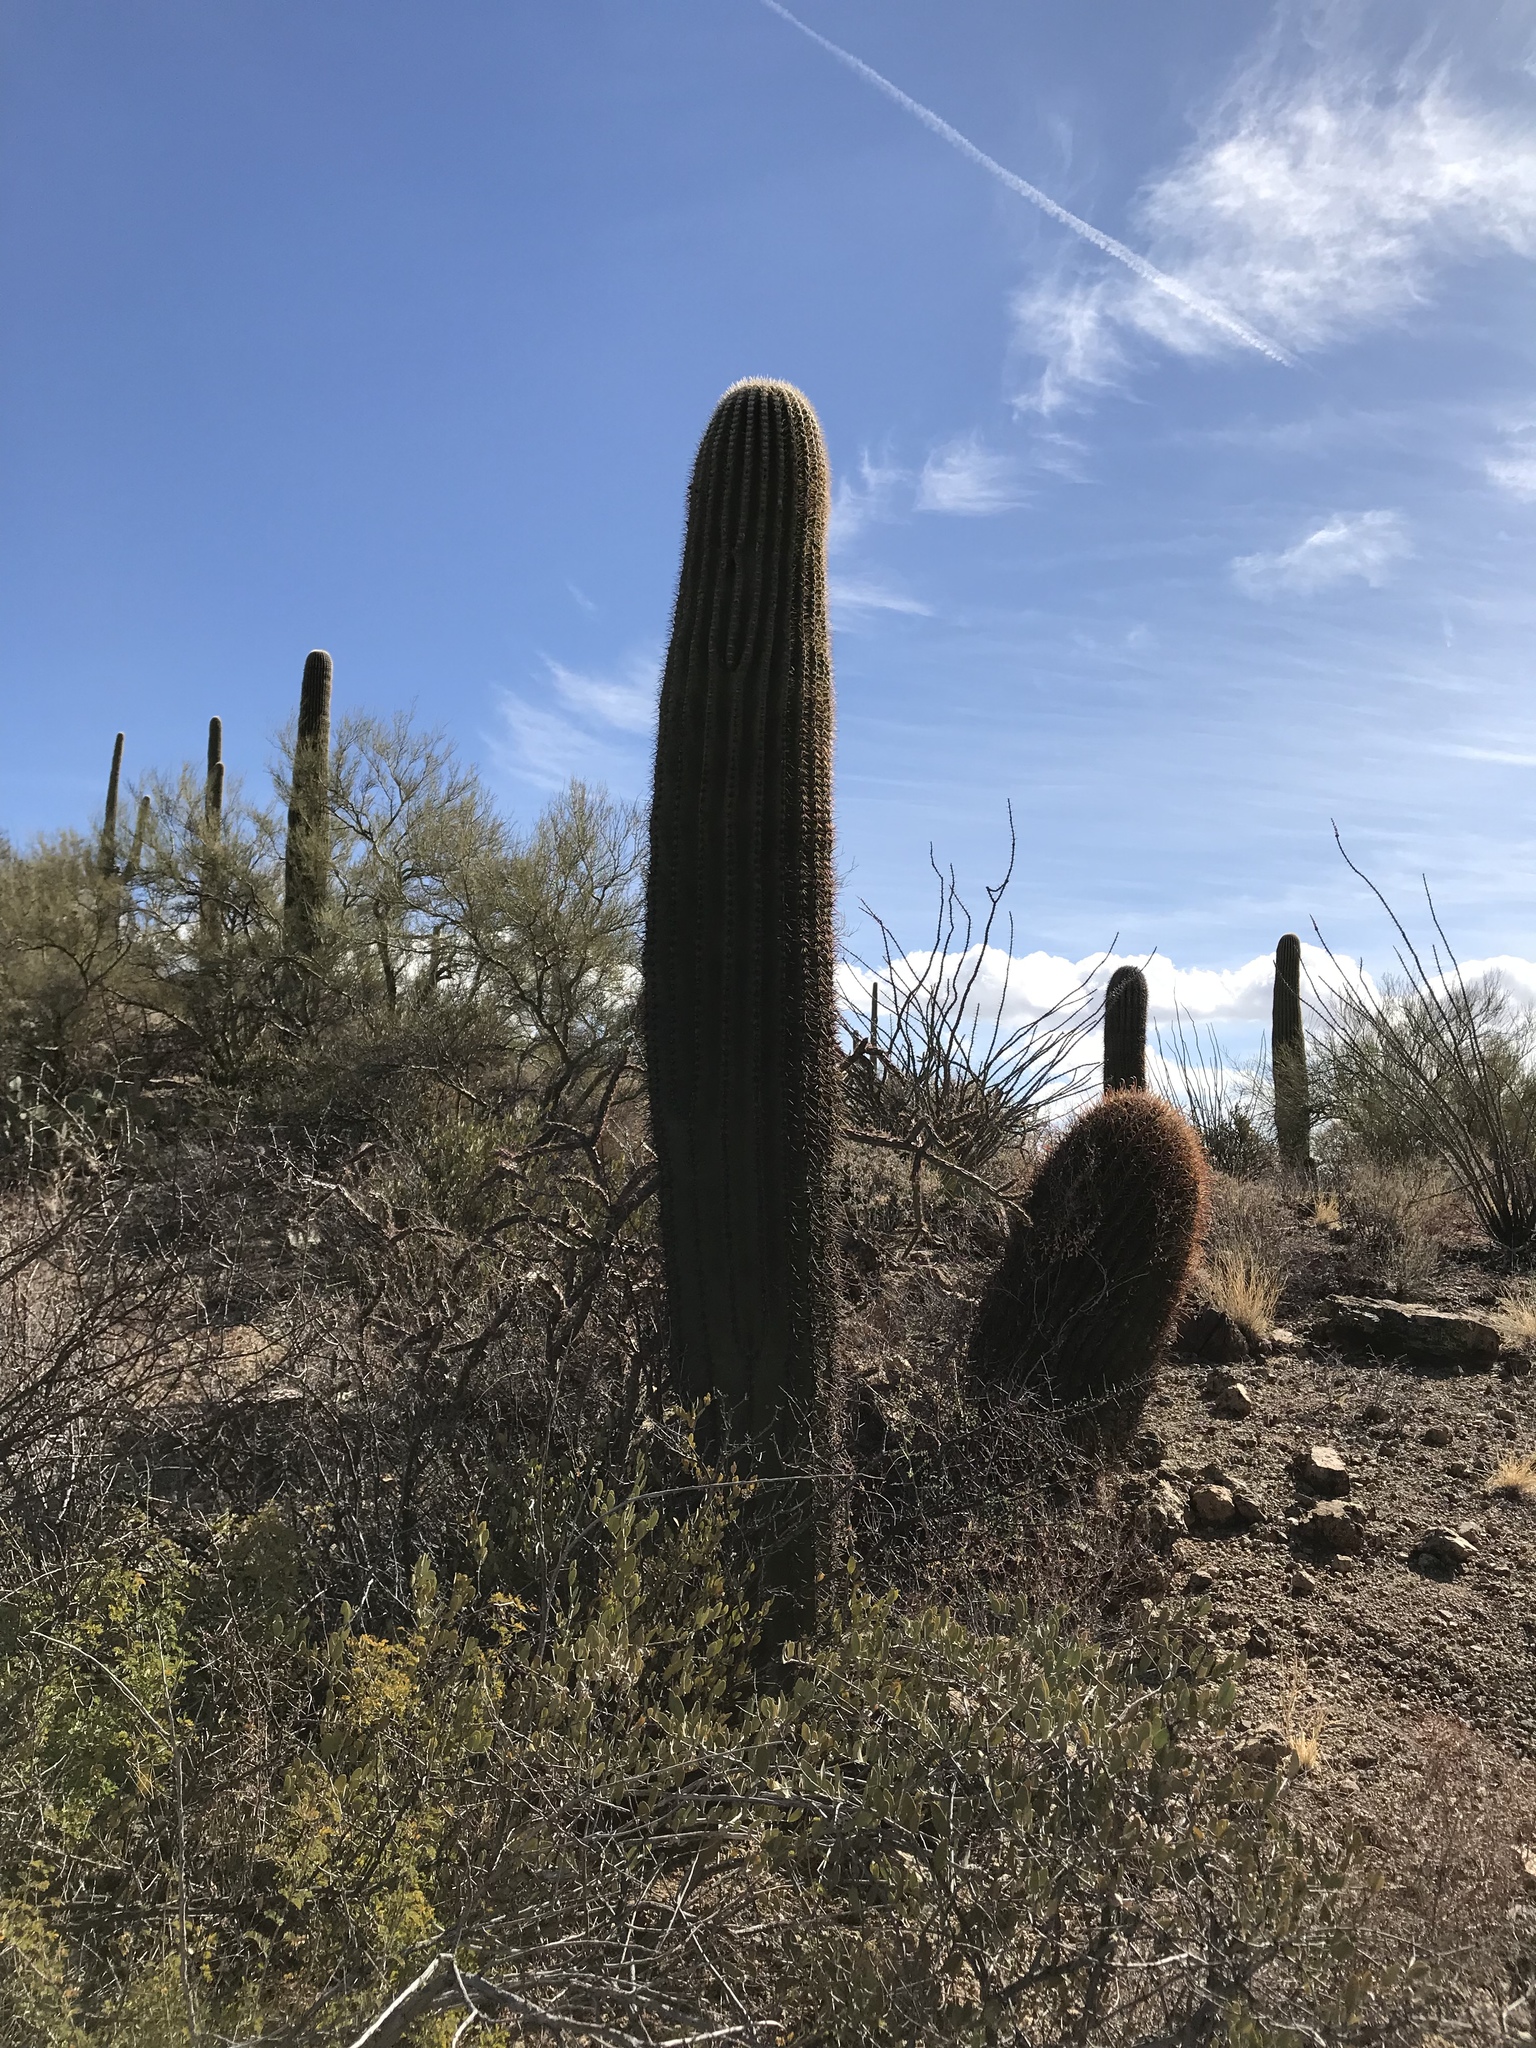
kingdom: Plantae
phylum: Tracheophyta
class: Magnoliopsida
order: Caryophyllales
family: Cactaceae
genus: Carnegiea
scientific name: Carnegiea gigantea
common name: Saguaro
